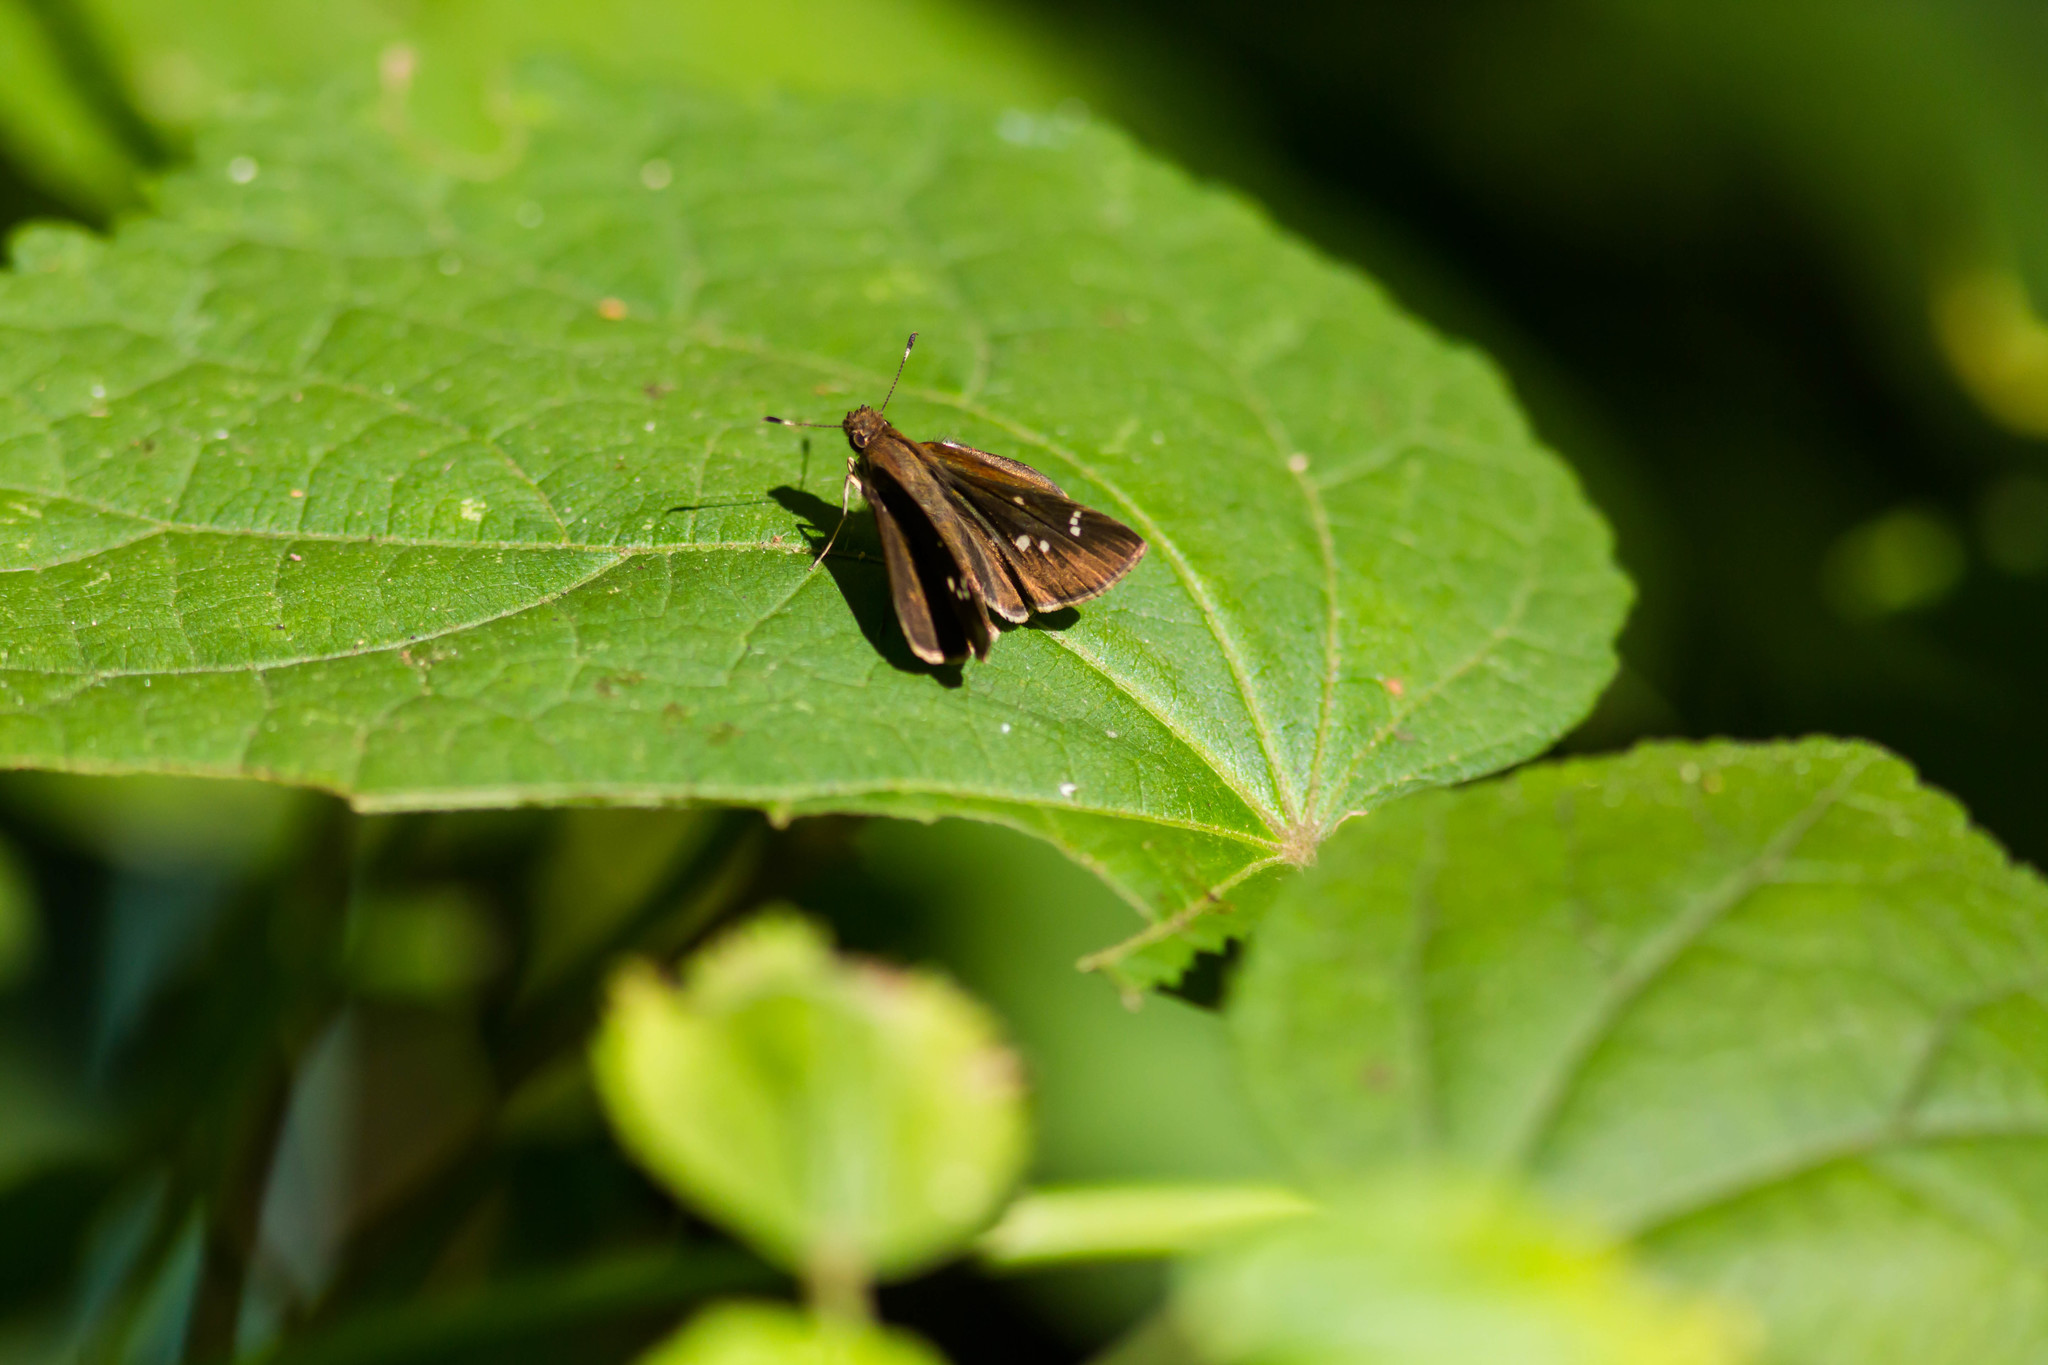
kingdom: Animalia
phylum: Arthropoda
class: Insecta
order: Lepidoptera
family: Hesperiidae
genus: Vernia
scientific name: Vernia verna
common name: Little glassywing
